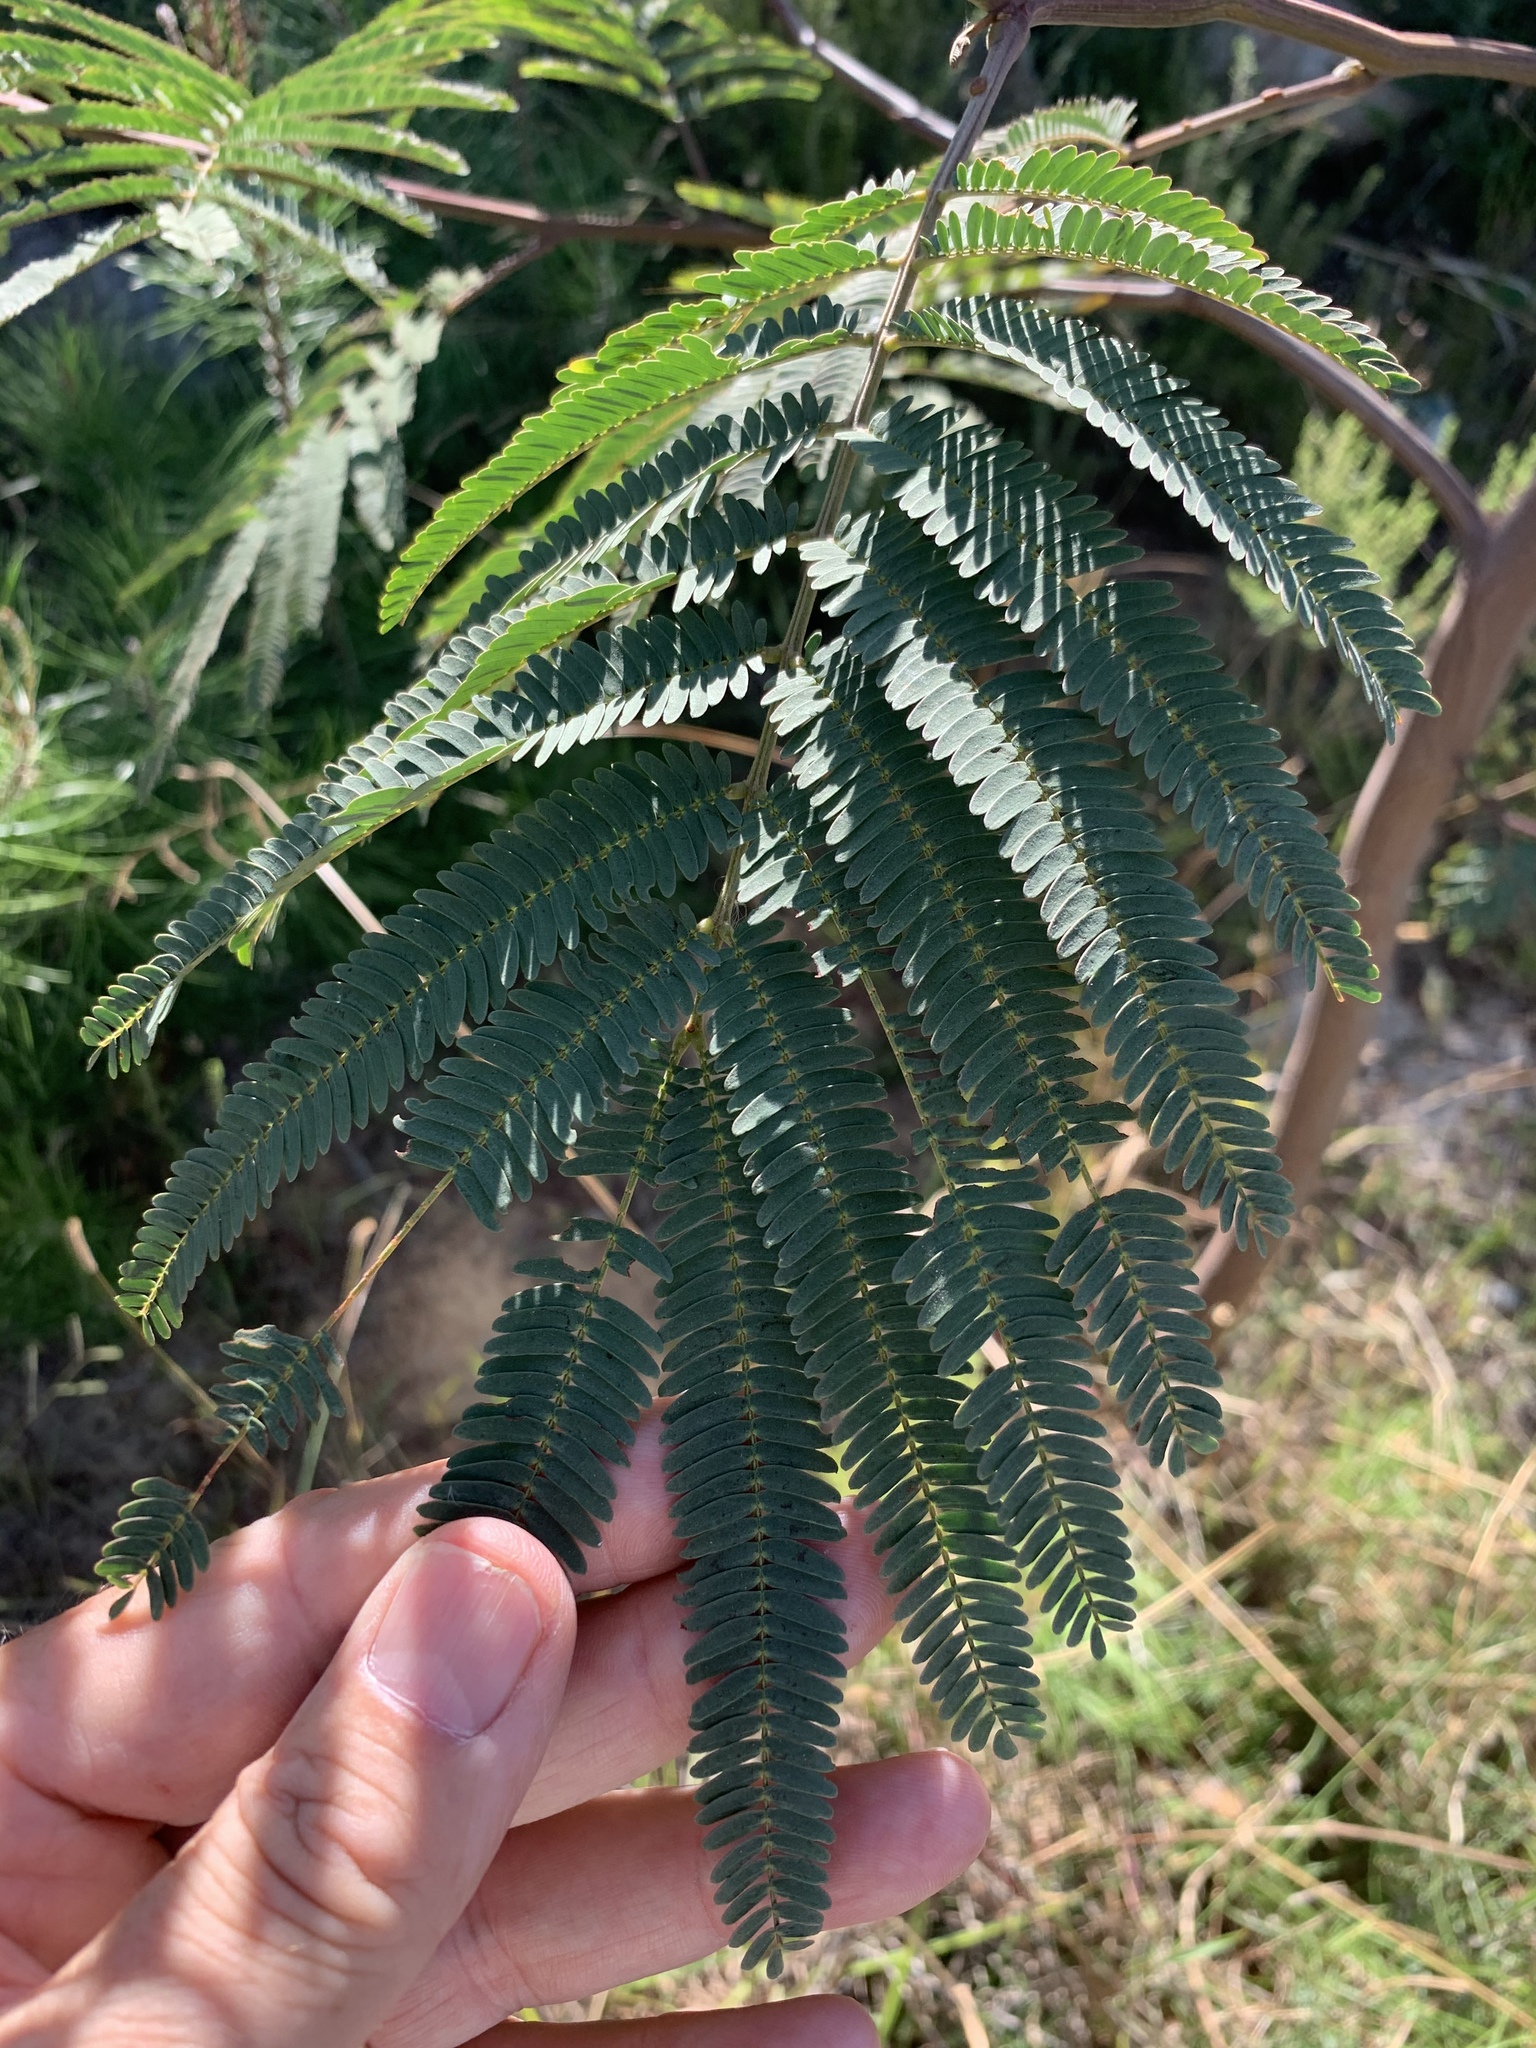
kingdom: Plantae
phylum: Tracheophyta
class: Magnoliopsida
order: Fabales
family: Fabaceae
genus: Paraserianthes
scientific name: Paraserianthes lophantha
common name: Plume albizia
